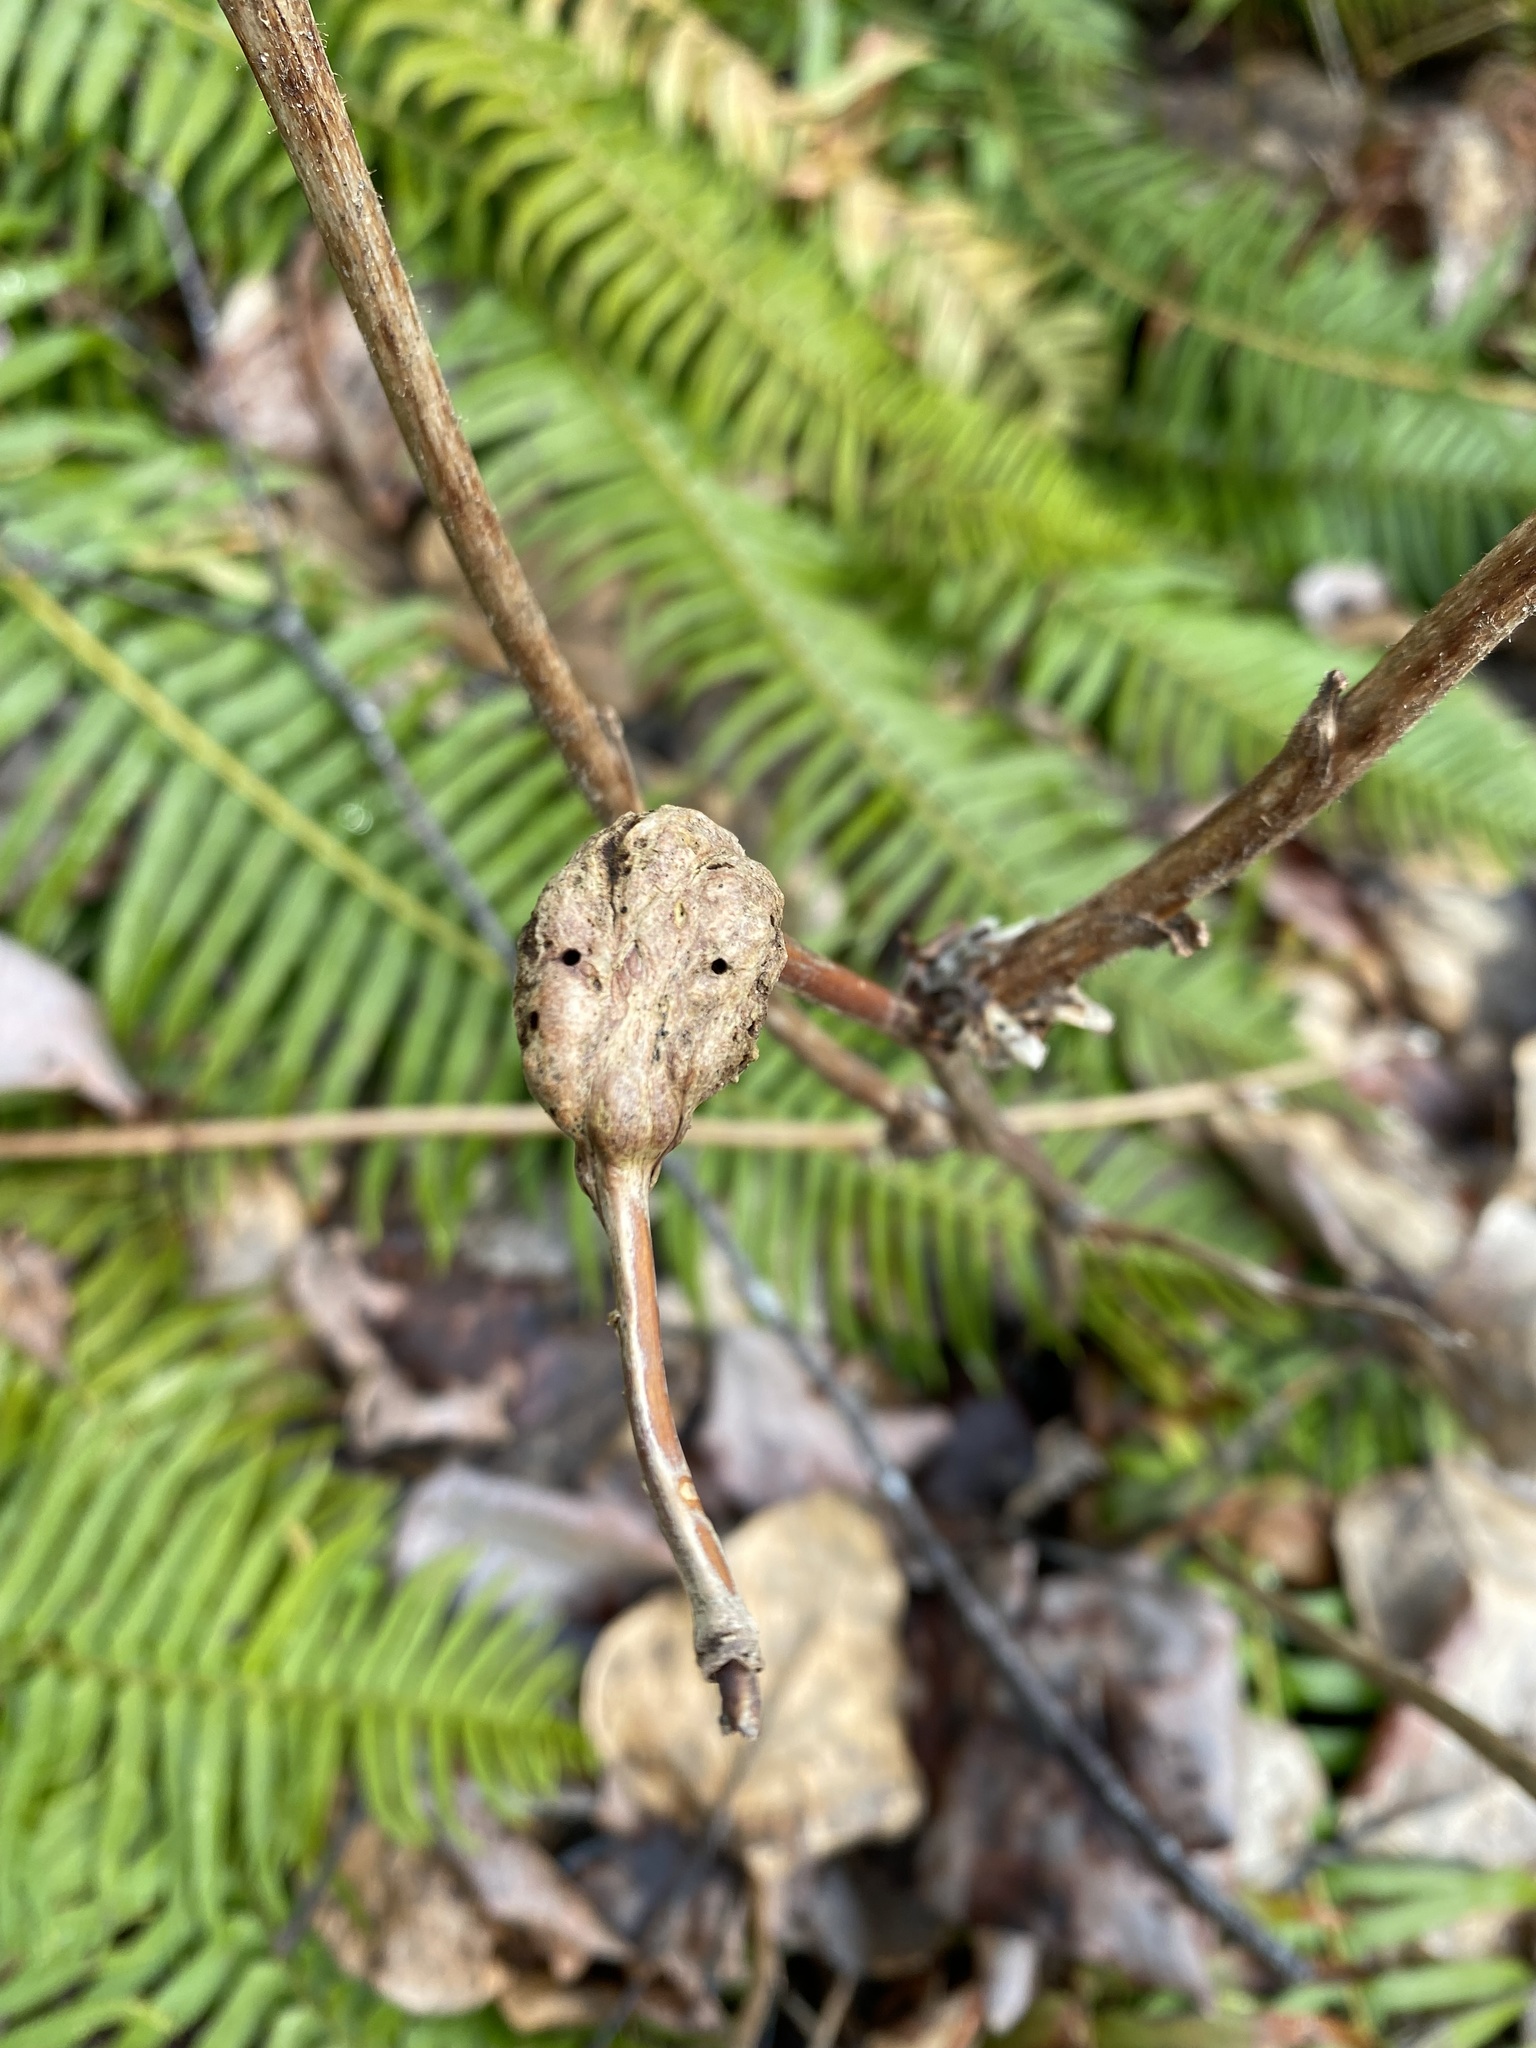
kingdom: Animalia
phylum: Arthropoda
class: Insecta
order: Hymenoptera
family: Cynipidae
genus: Diastrophus
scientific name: Diastrophus
